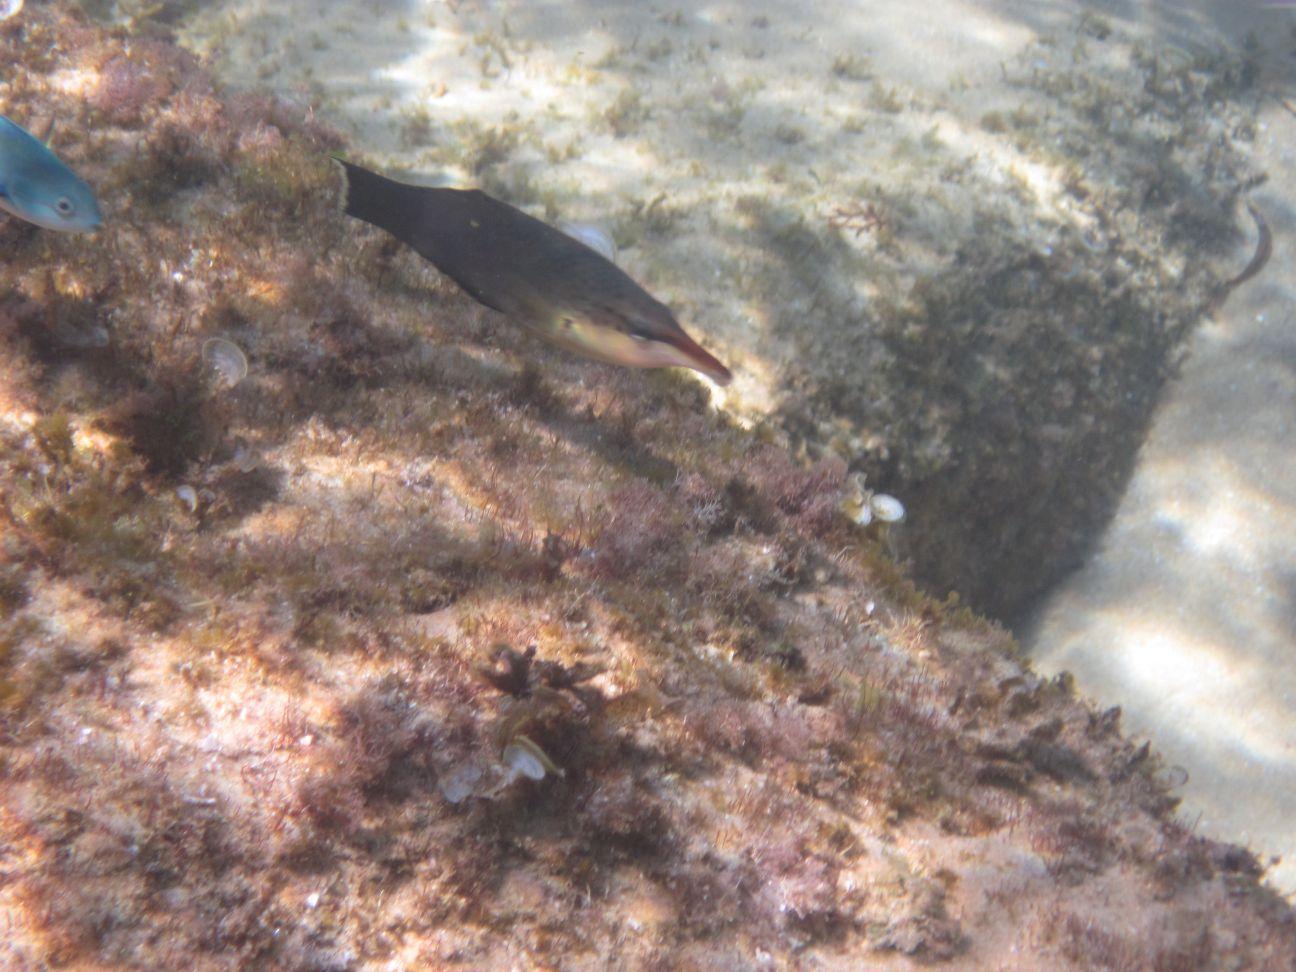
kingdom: Animalia
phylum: Chordata
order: Perciformes
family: Labridae
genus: Gomphosus
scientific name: Gomphosus caeruleus
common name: Bird wrasse
